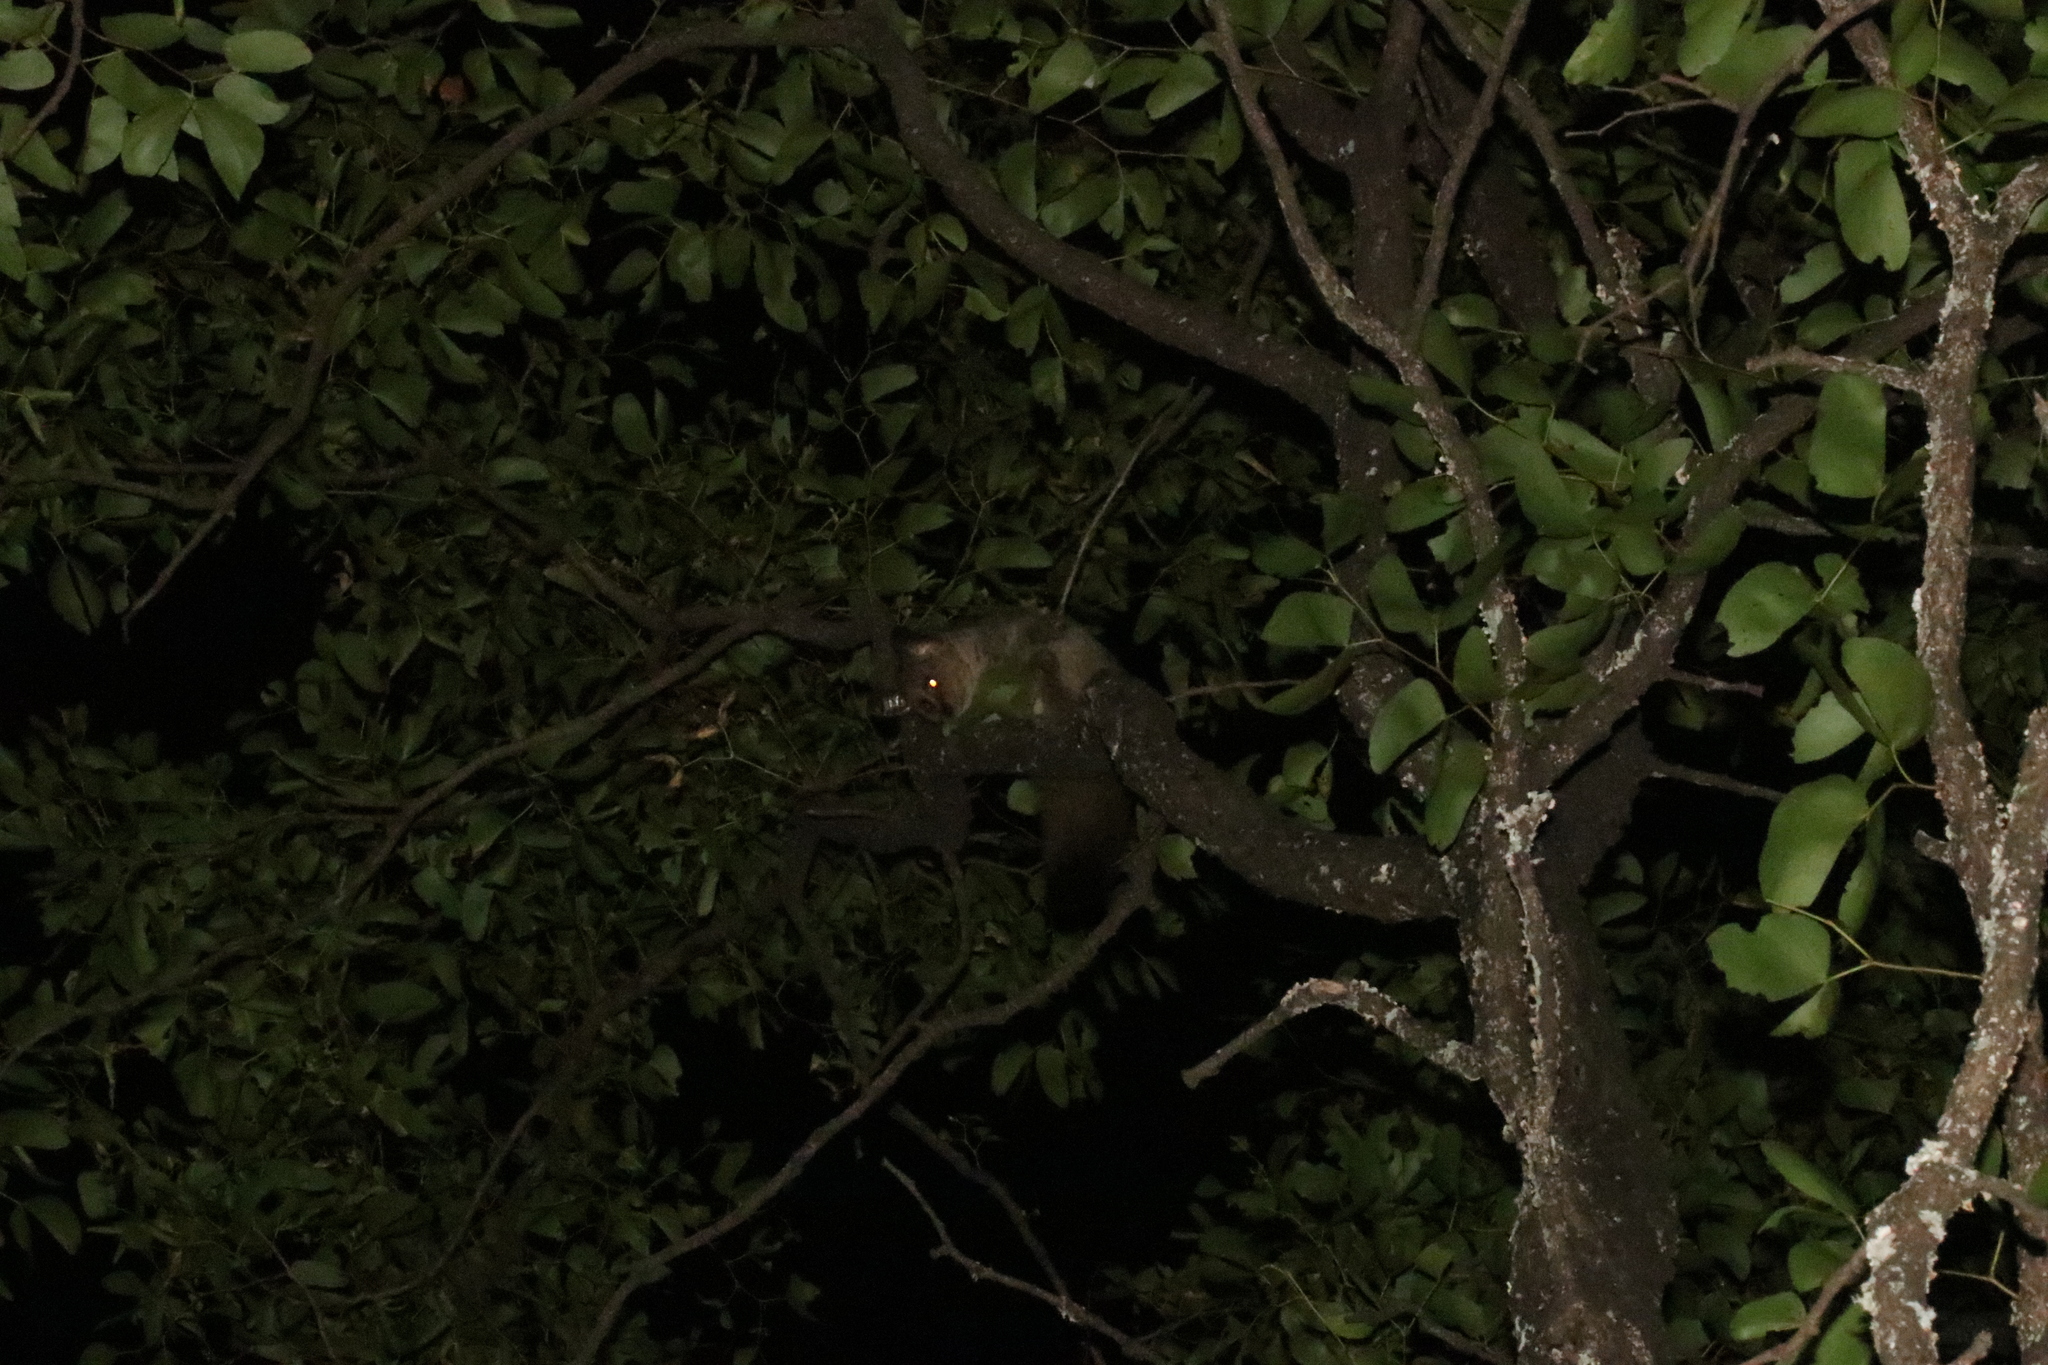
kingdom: Animalia
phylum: Chordata
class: Mammalia
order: Primates
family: Galagidae
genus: Otolemur
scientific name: Otolemur crassicaudatus
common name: Brown greater galago
